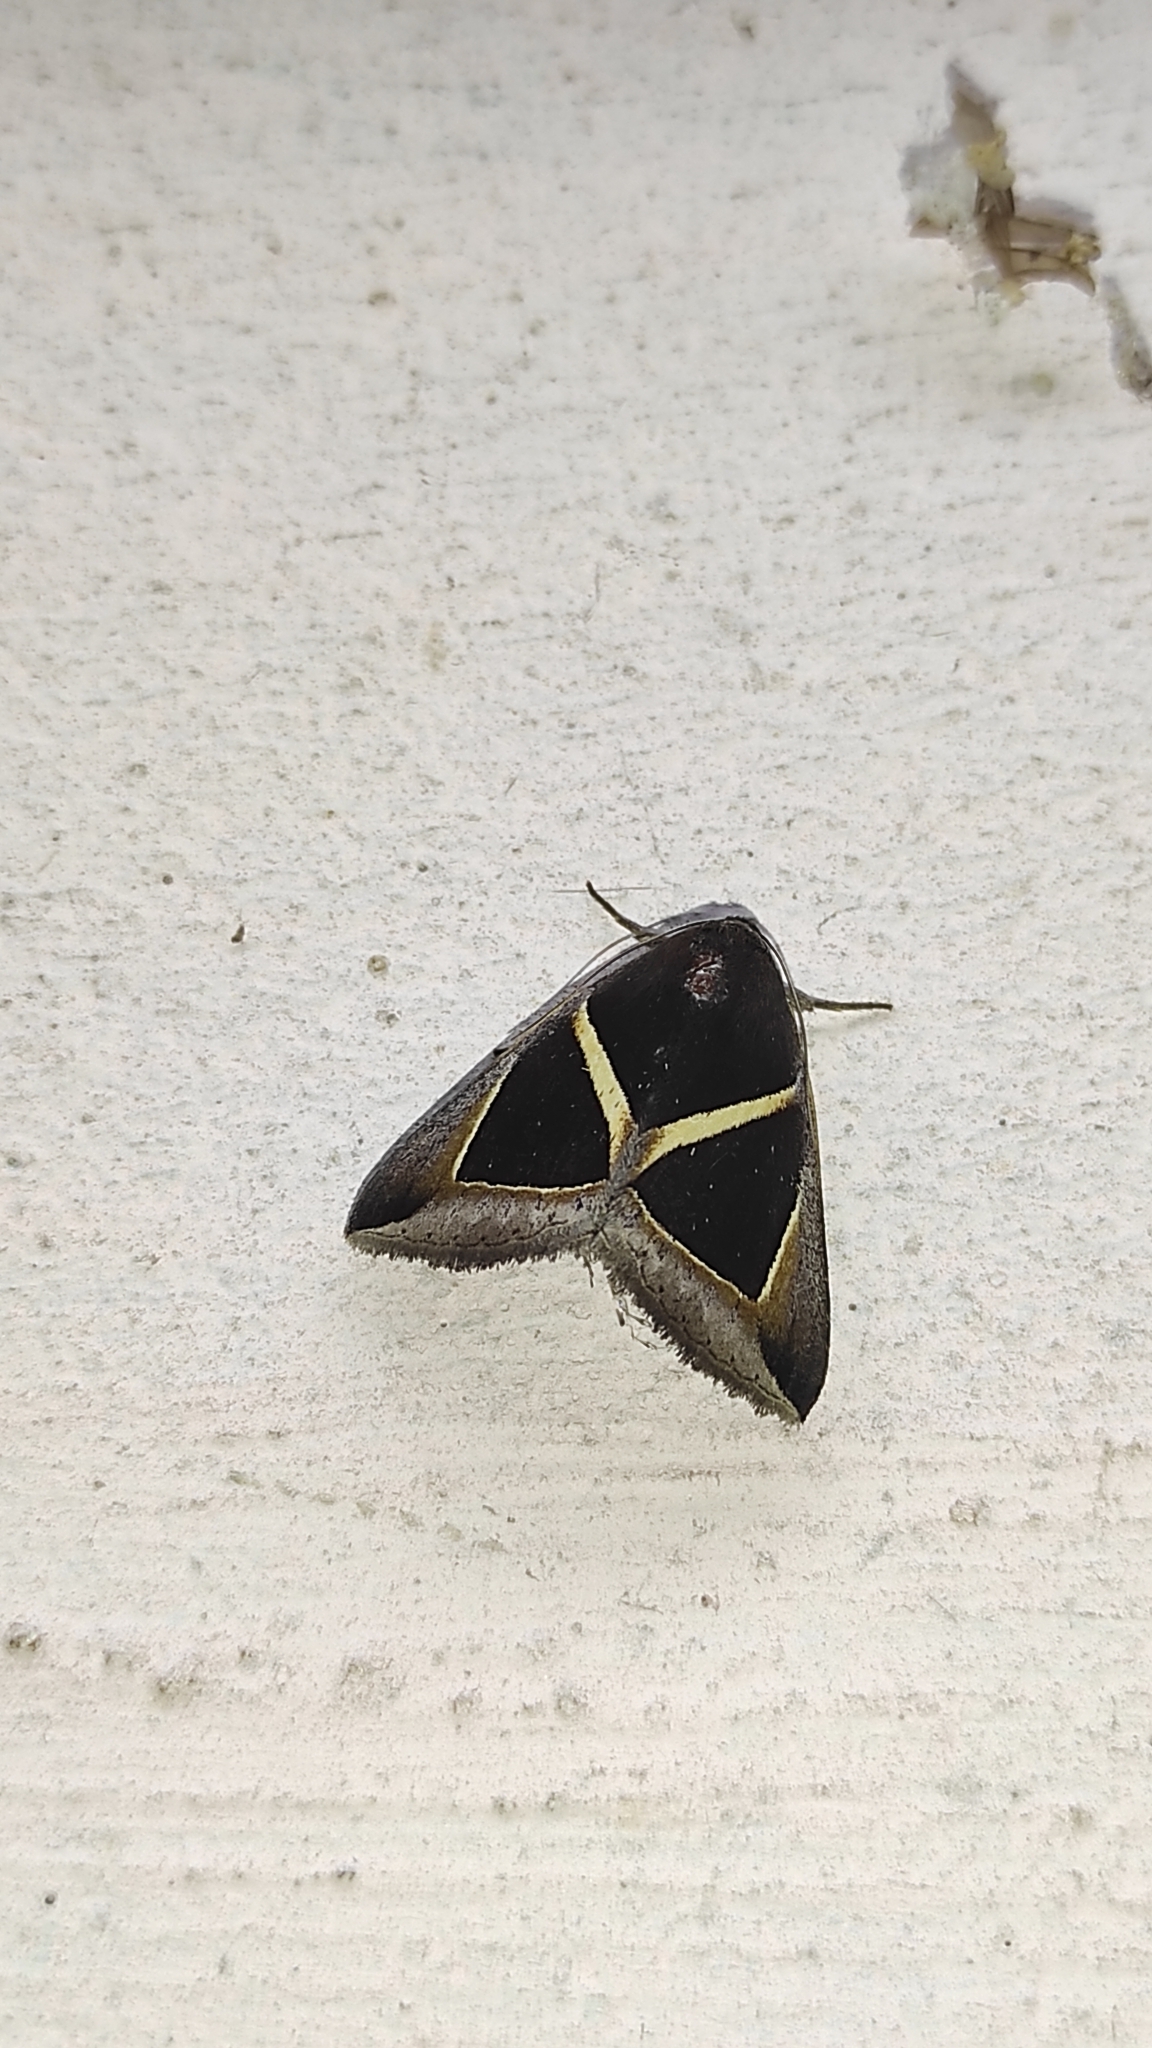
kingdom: Animalia
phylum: Arthropoda
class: Insecta
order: Lepidoptera
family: Erebidae
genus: Chalciope
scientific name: Chalciope mygdon
